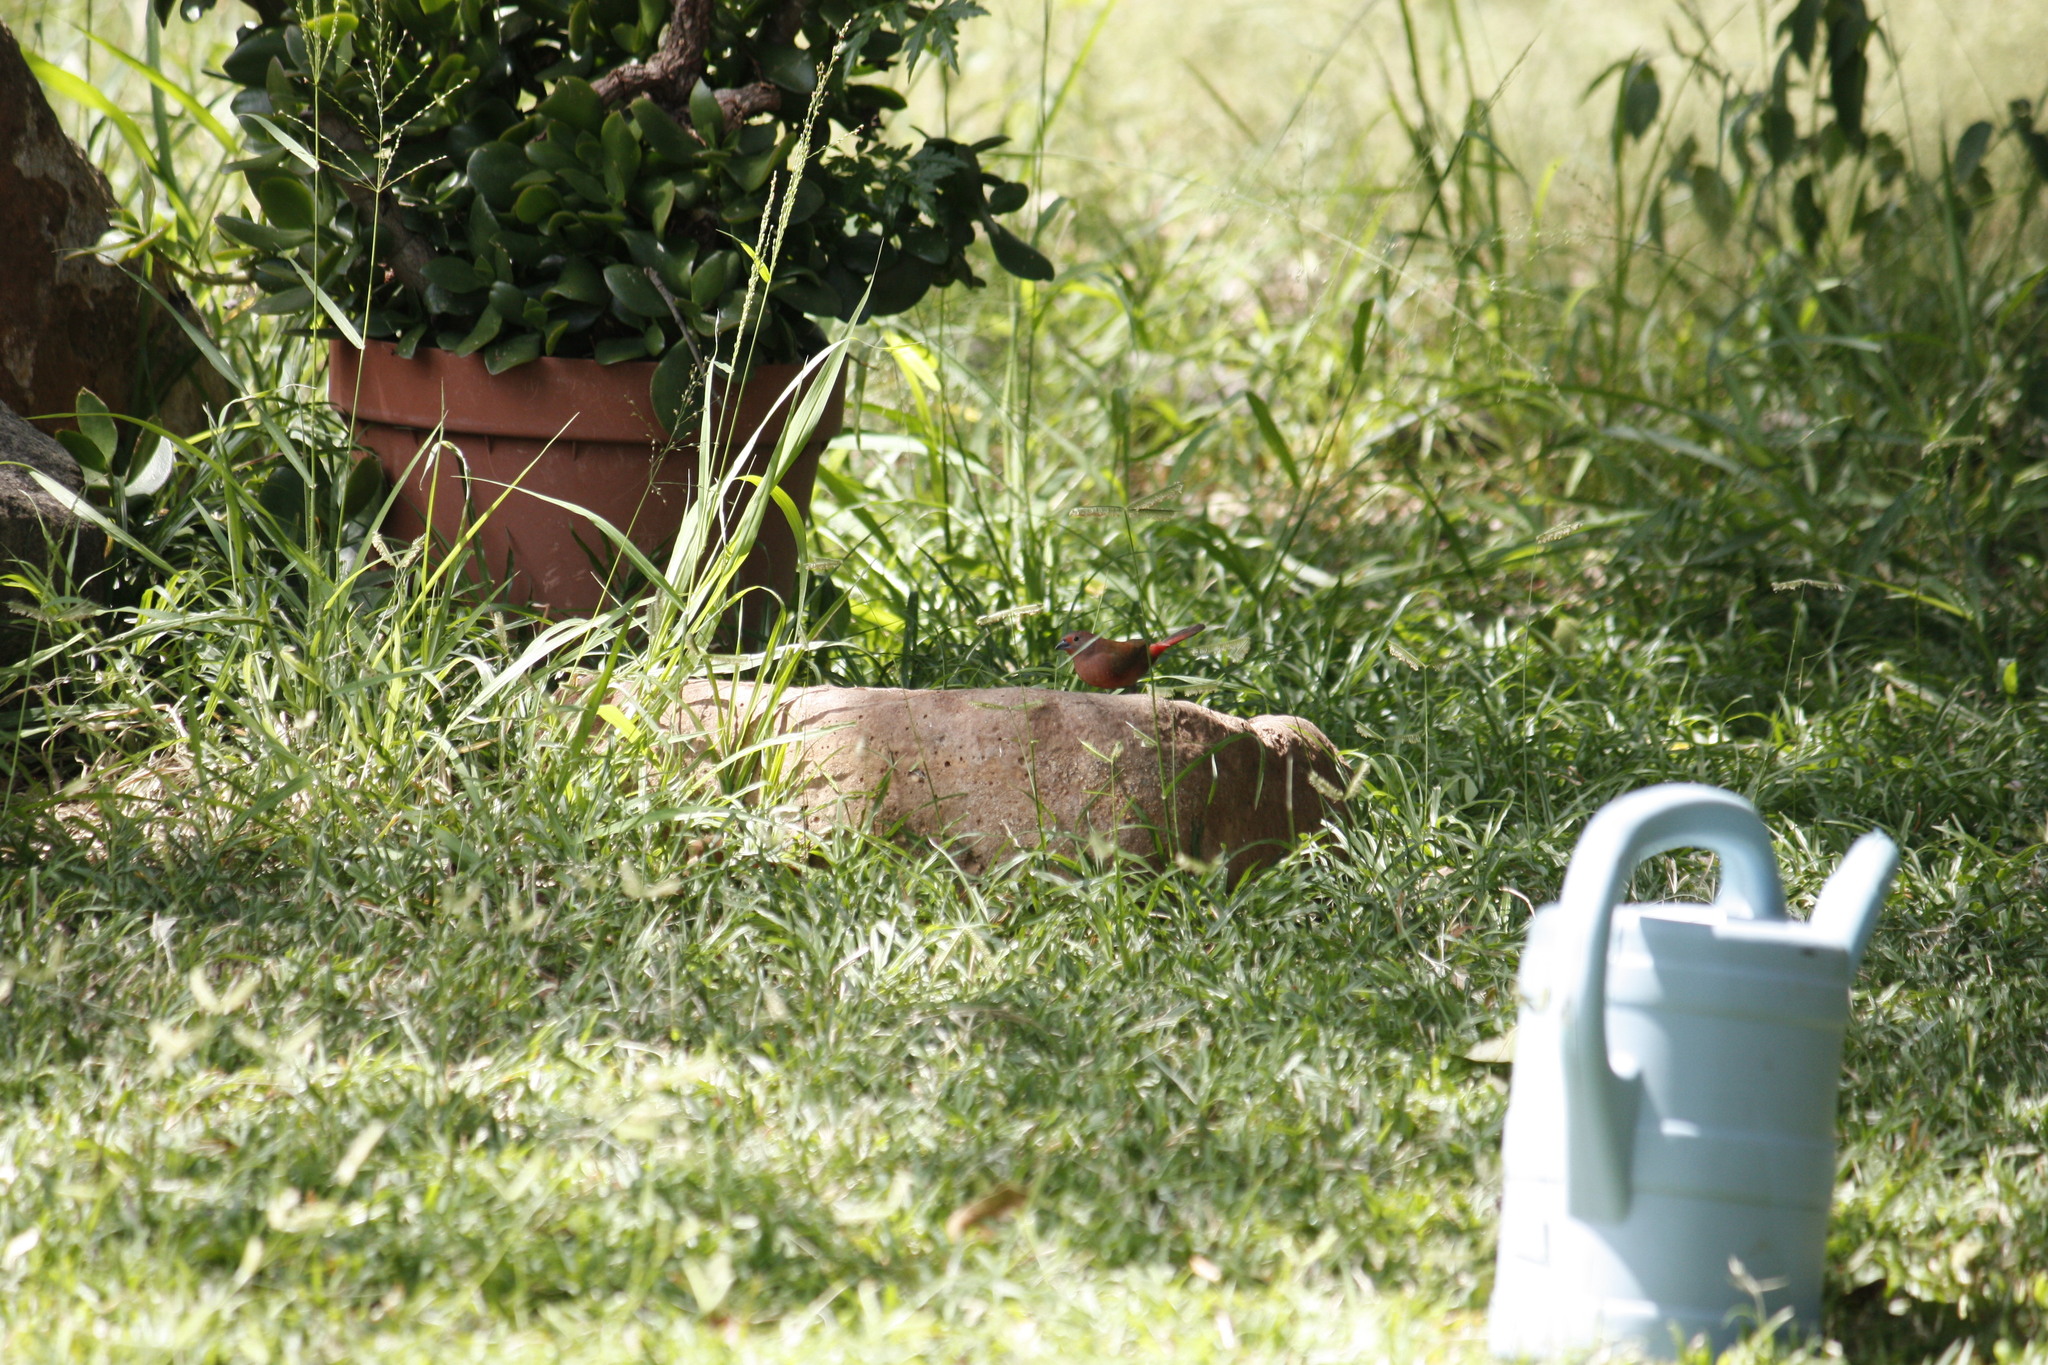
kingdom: Animalia
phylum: Chordata
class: Aves
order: Passeriformes
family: Estrildidae
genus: Lagonosticta
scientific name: Lagonosticta rhodopareia
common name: Jameson's firefinch
